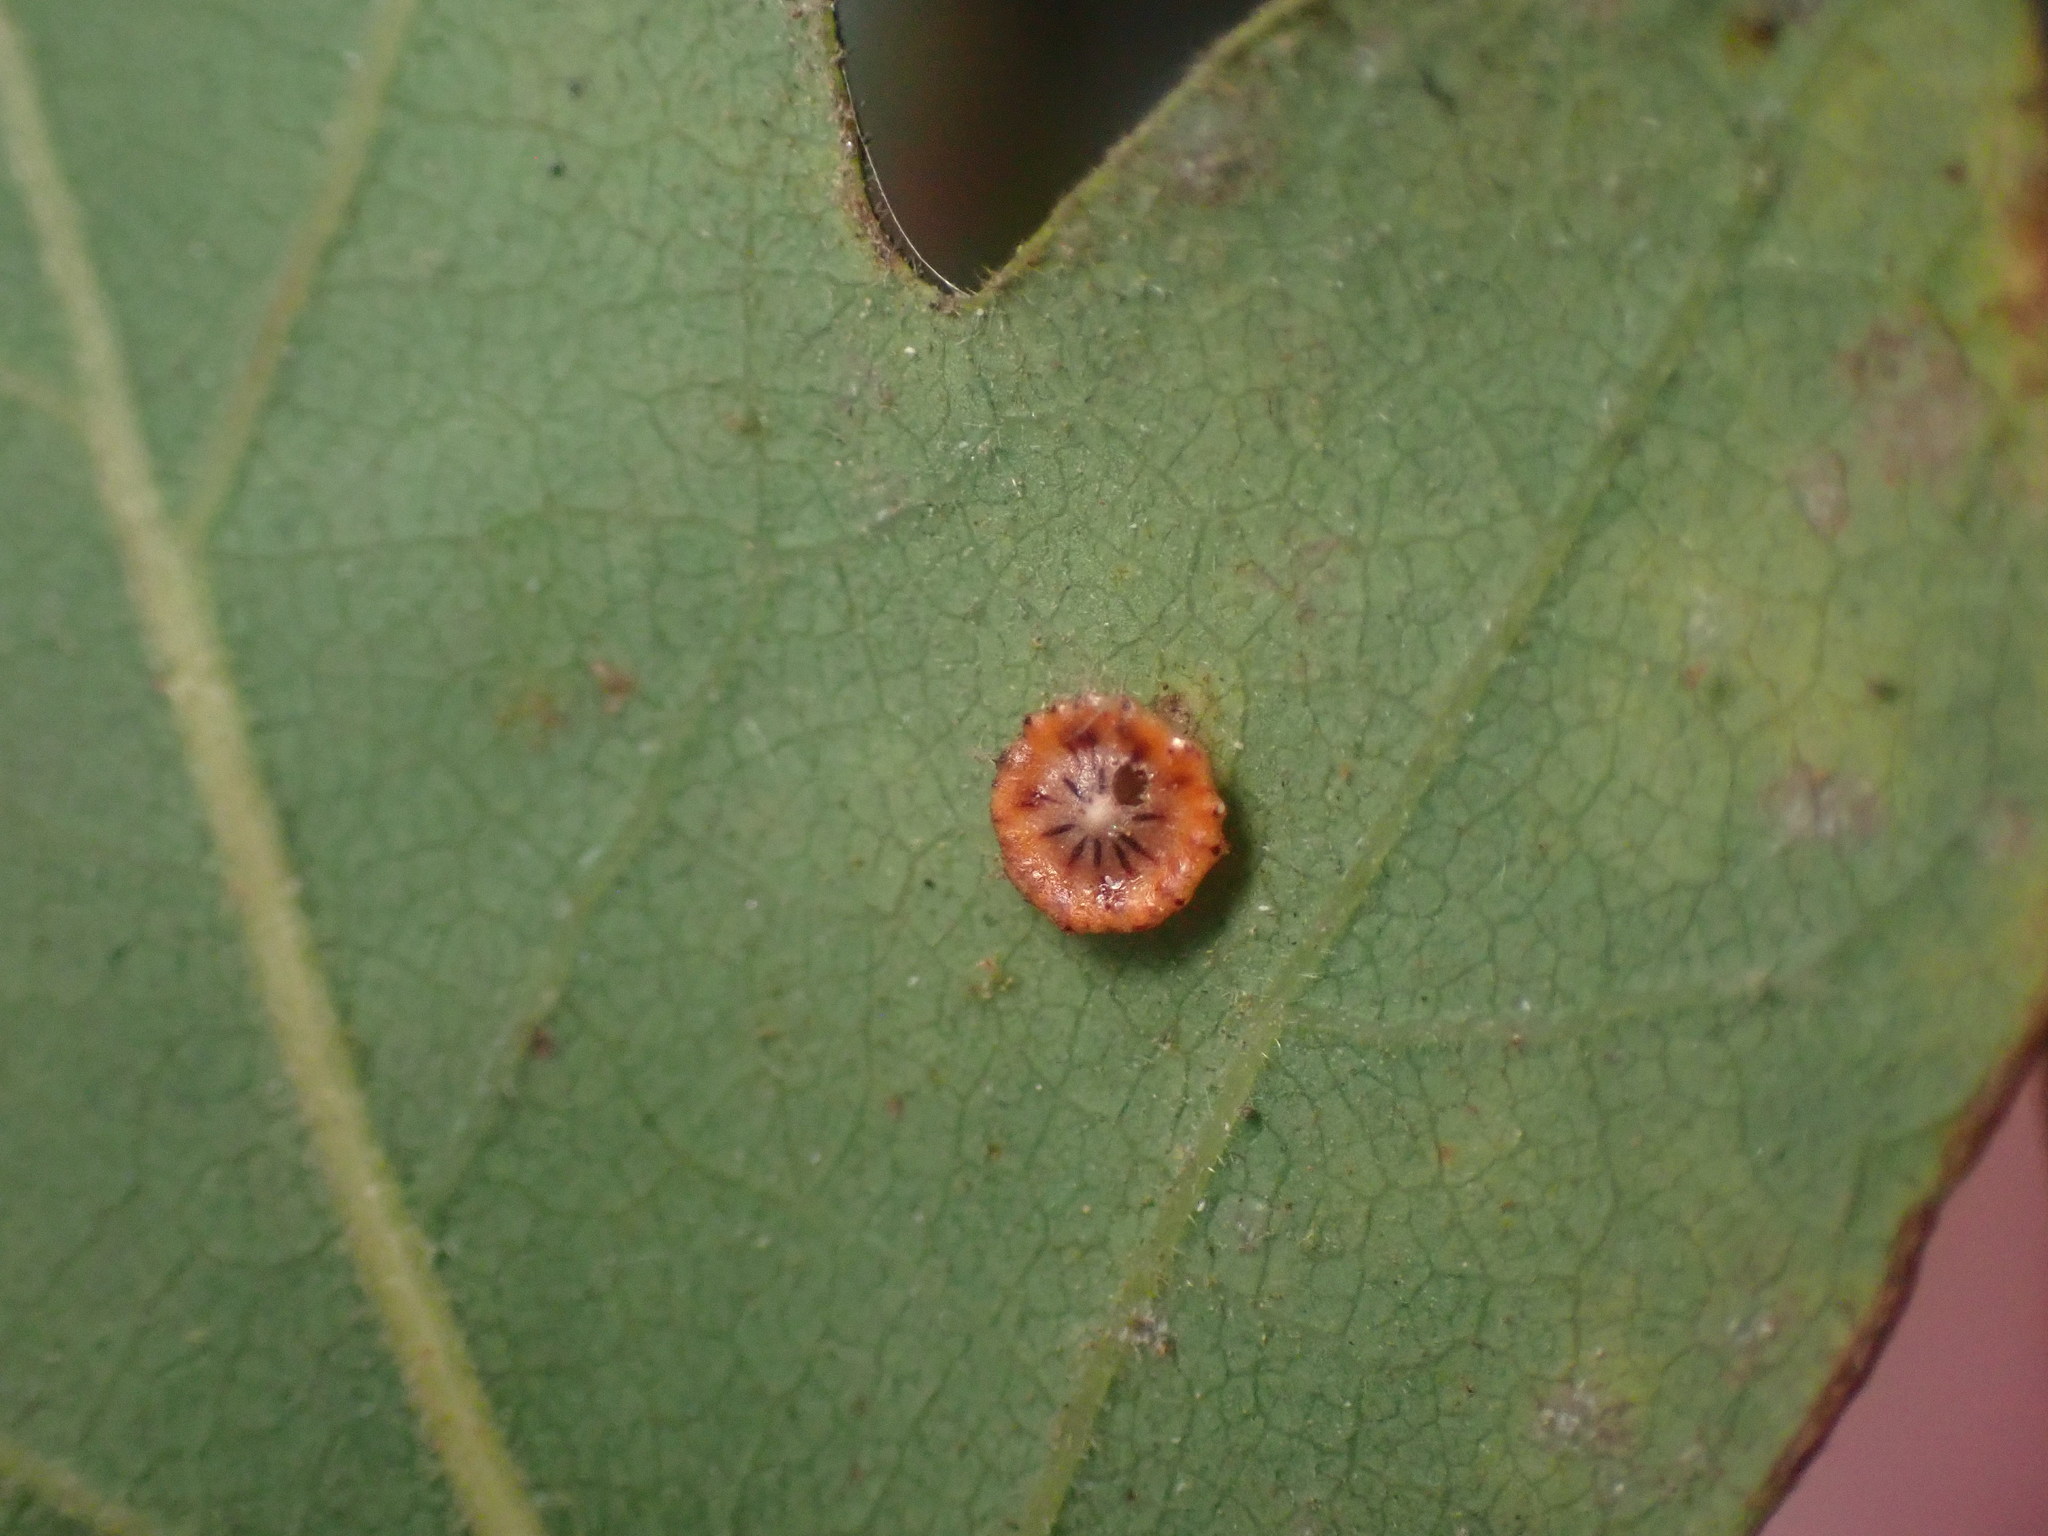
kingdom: Animalia
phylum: Arthropoda
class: Insecta
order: Hymenoptera
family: Cynipidae
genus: Andricus
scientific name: Andricus
